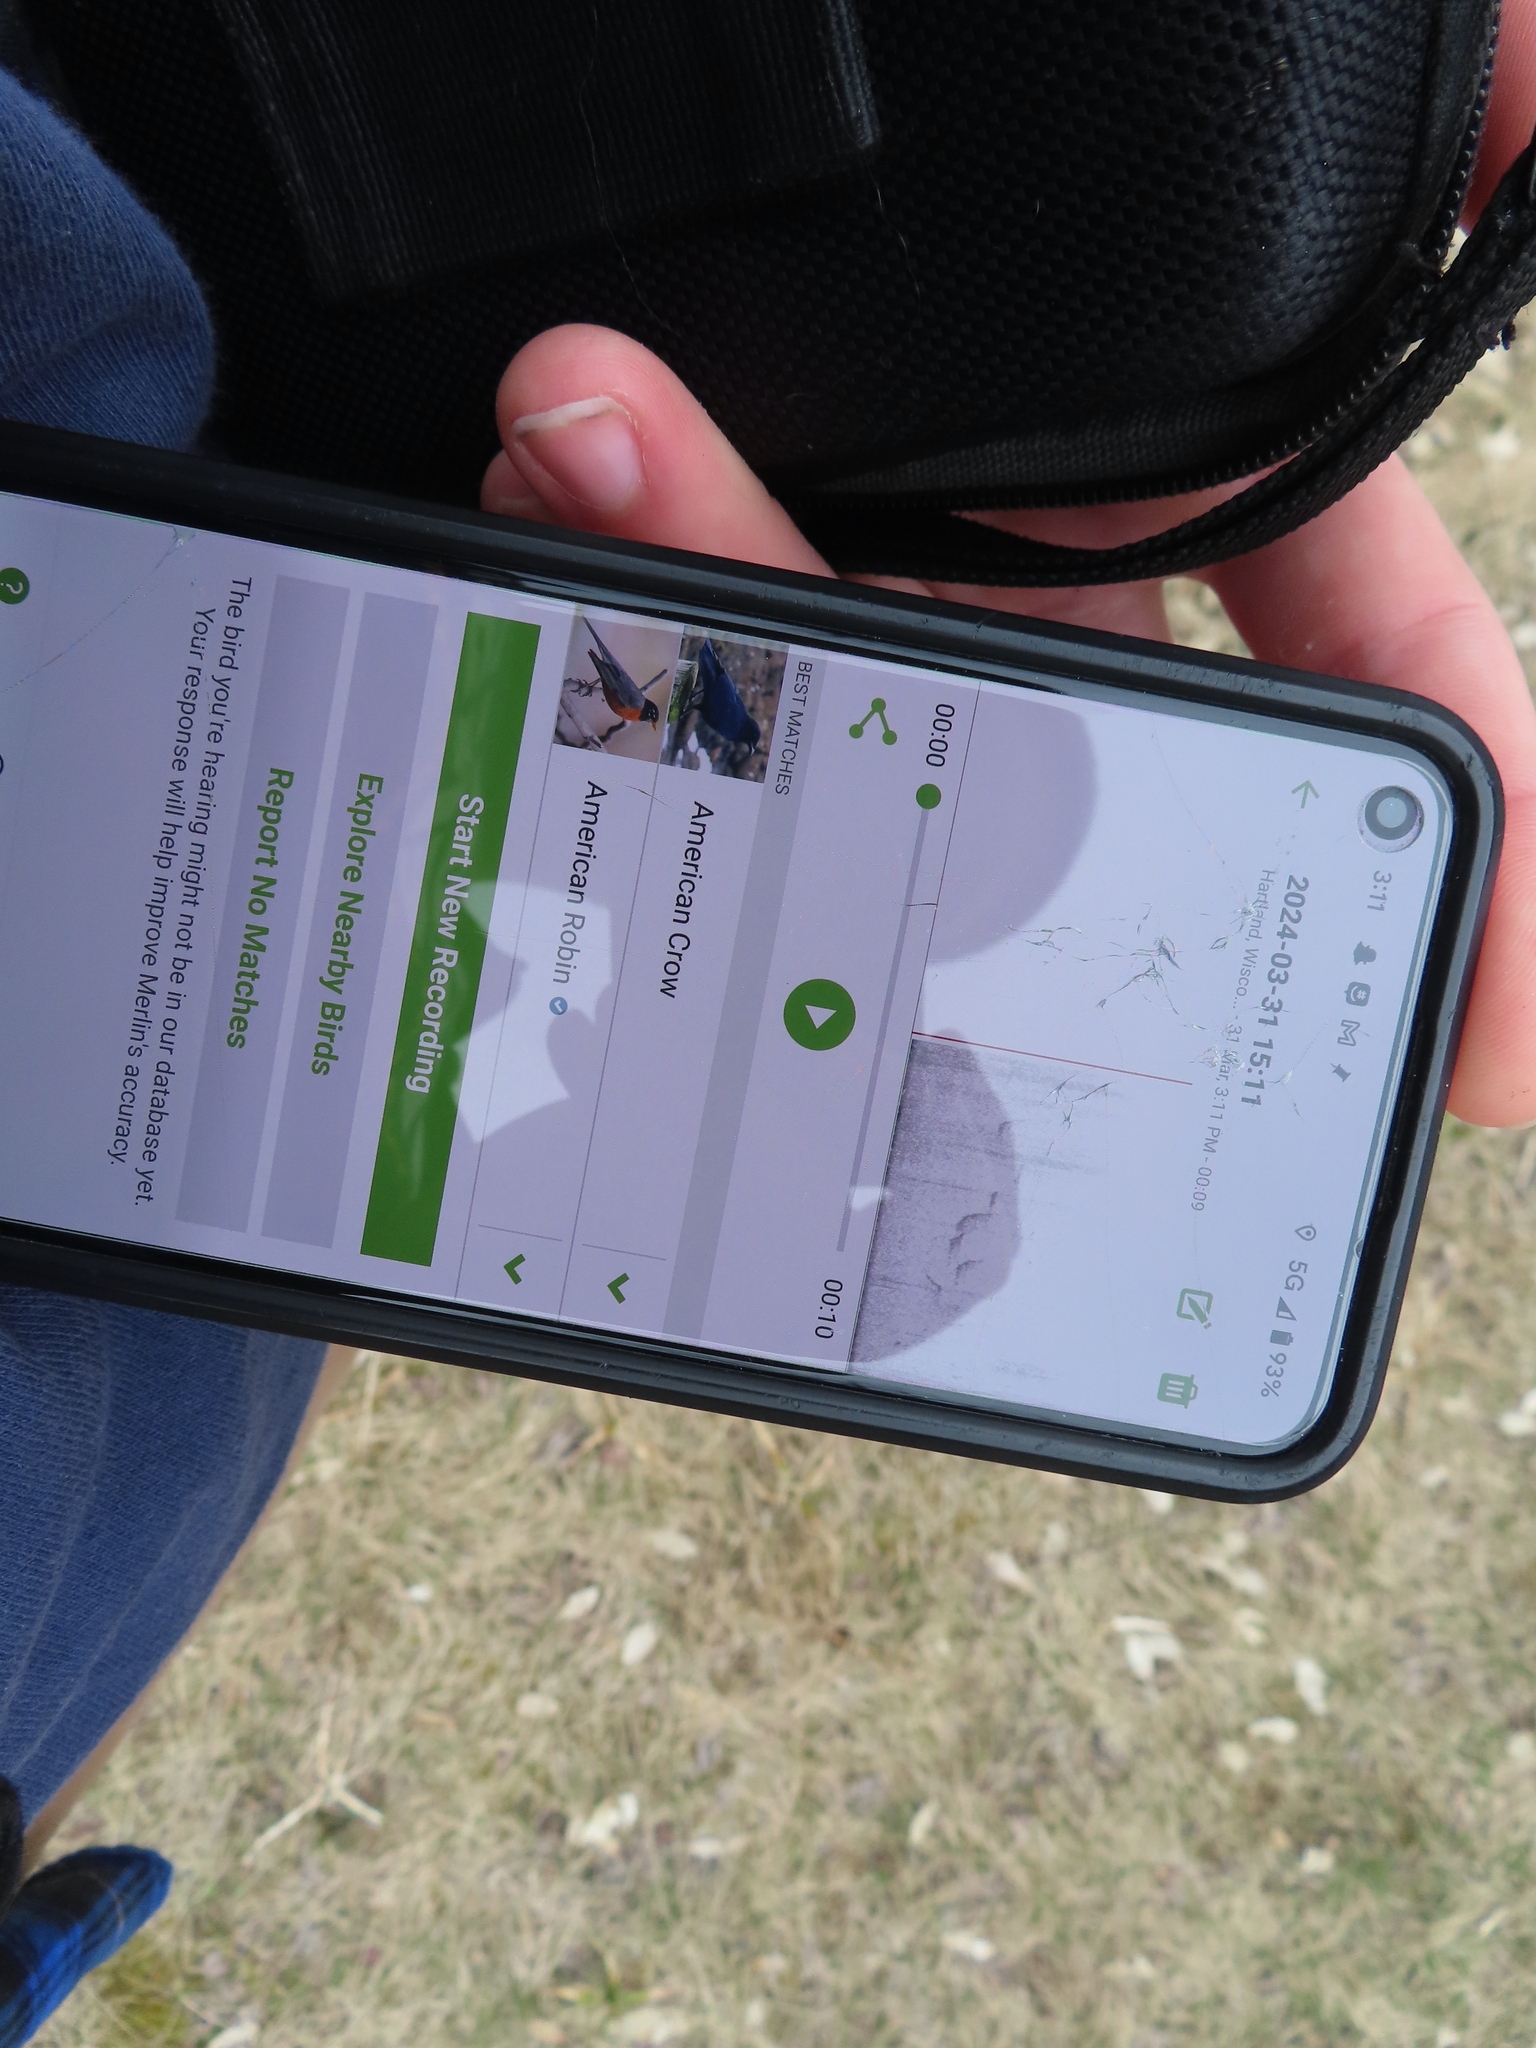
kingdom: Animalia
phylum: Chordata
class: Aves
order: Passeriformes
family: Corvidae
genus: Corvus
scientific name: Corvus brachyrhynchos
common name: American crow
